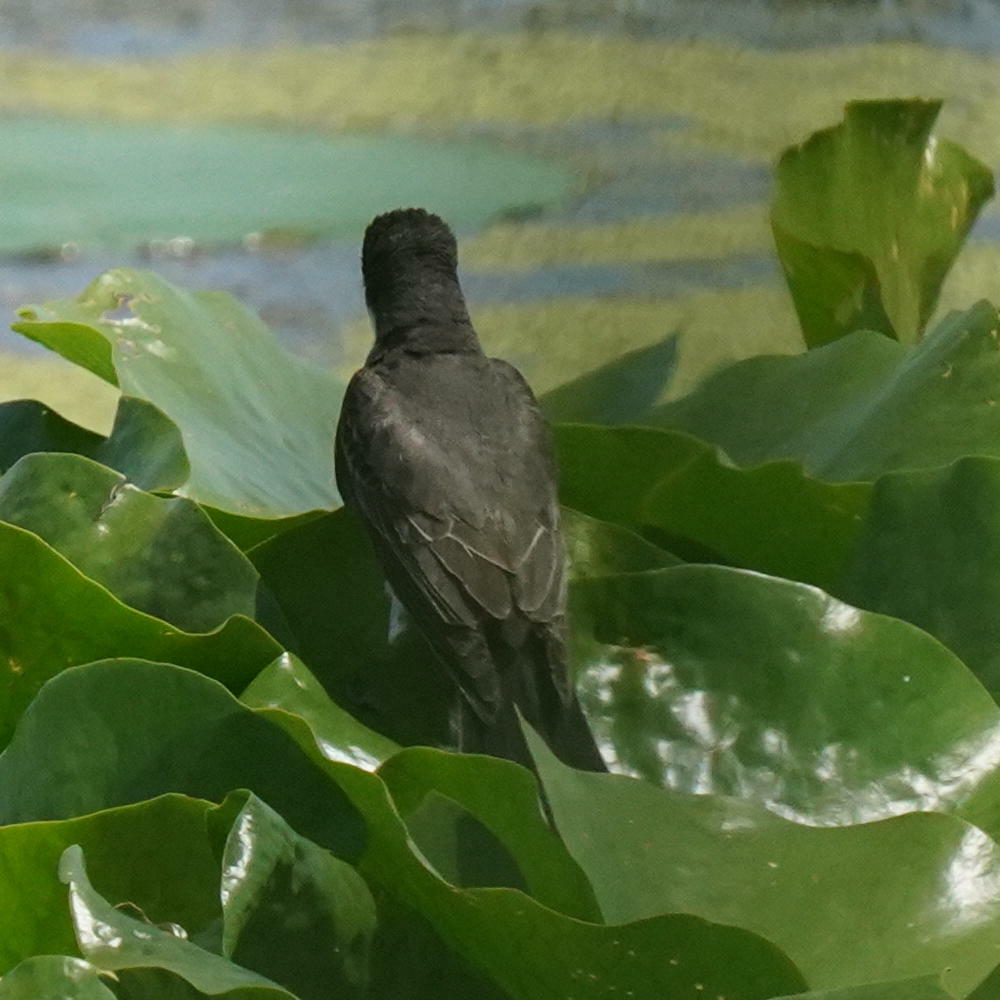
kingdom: Animalia
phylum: Chordata
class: Aves
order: Passeriformes
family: Tyrannidae
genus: Tyrannus
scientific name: Tyrannus tyrannus
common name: Eastern kingbird
